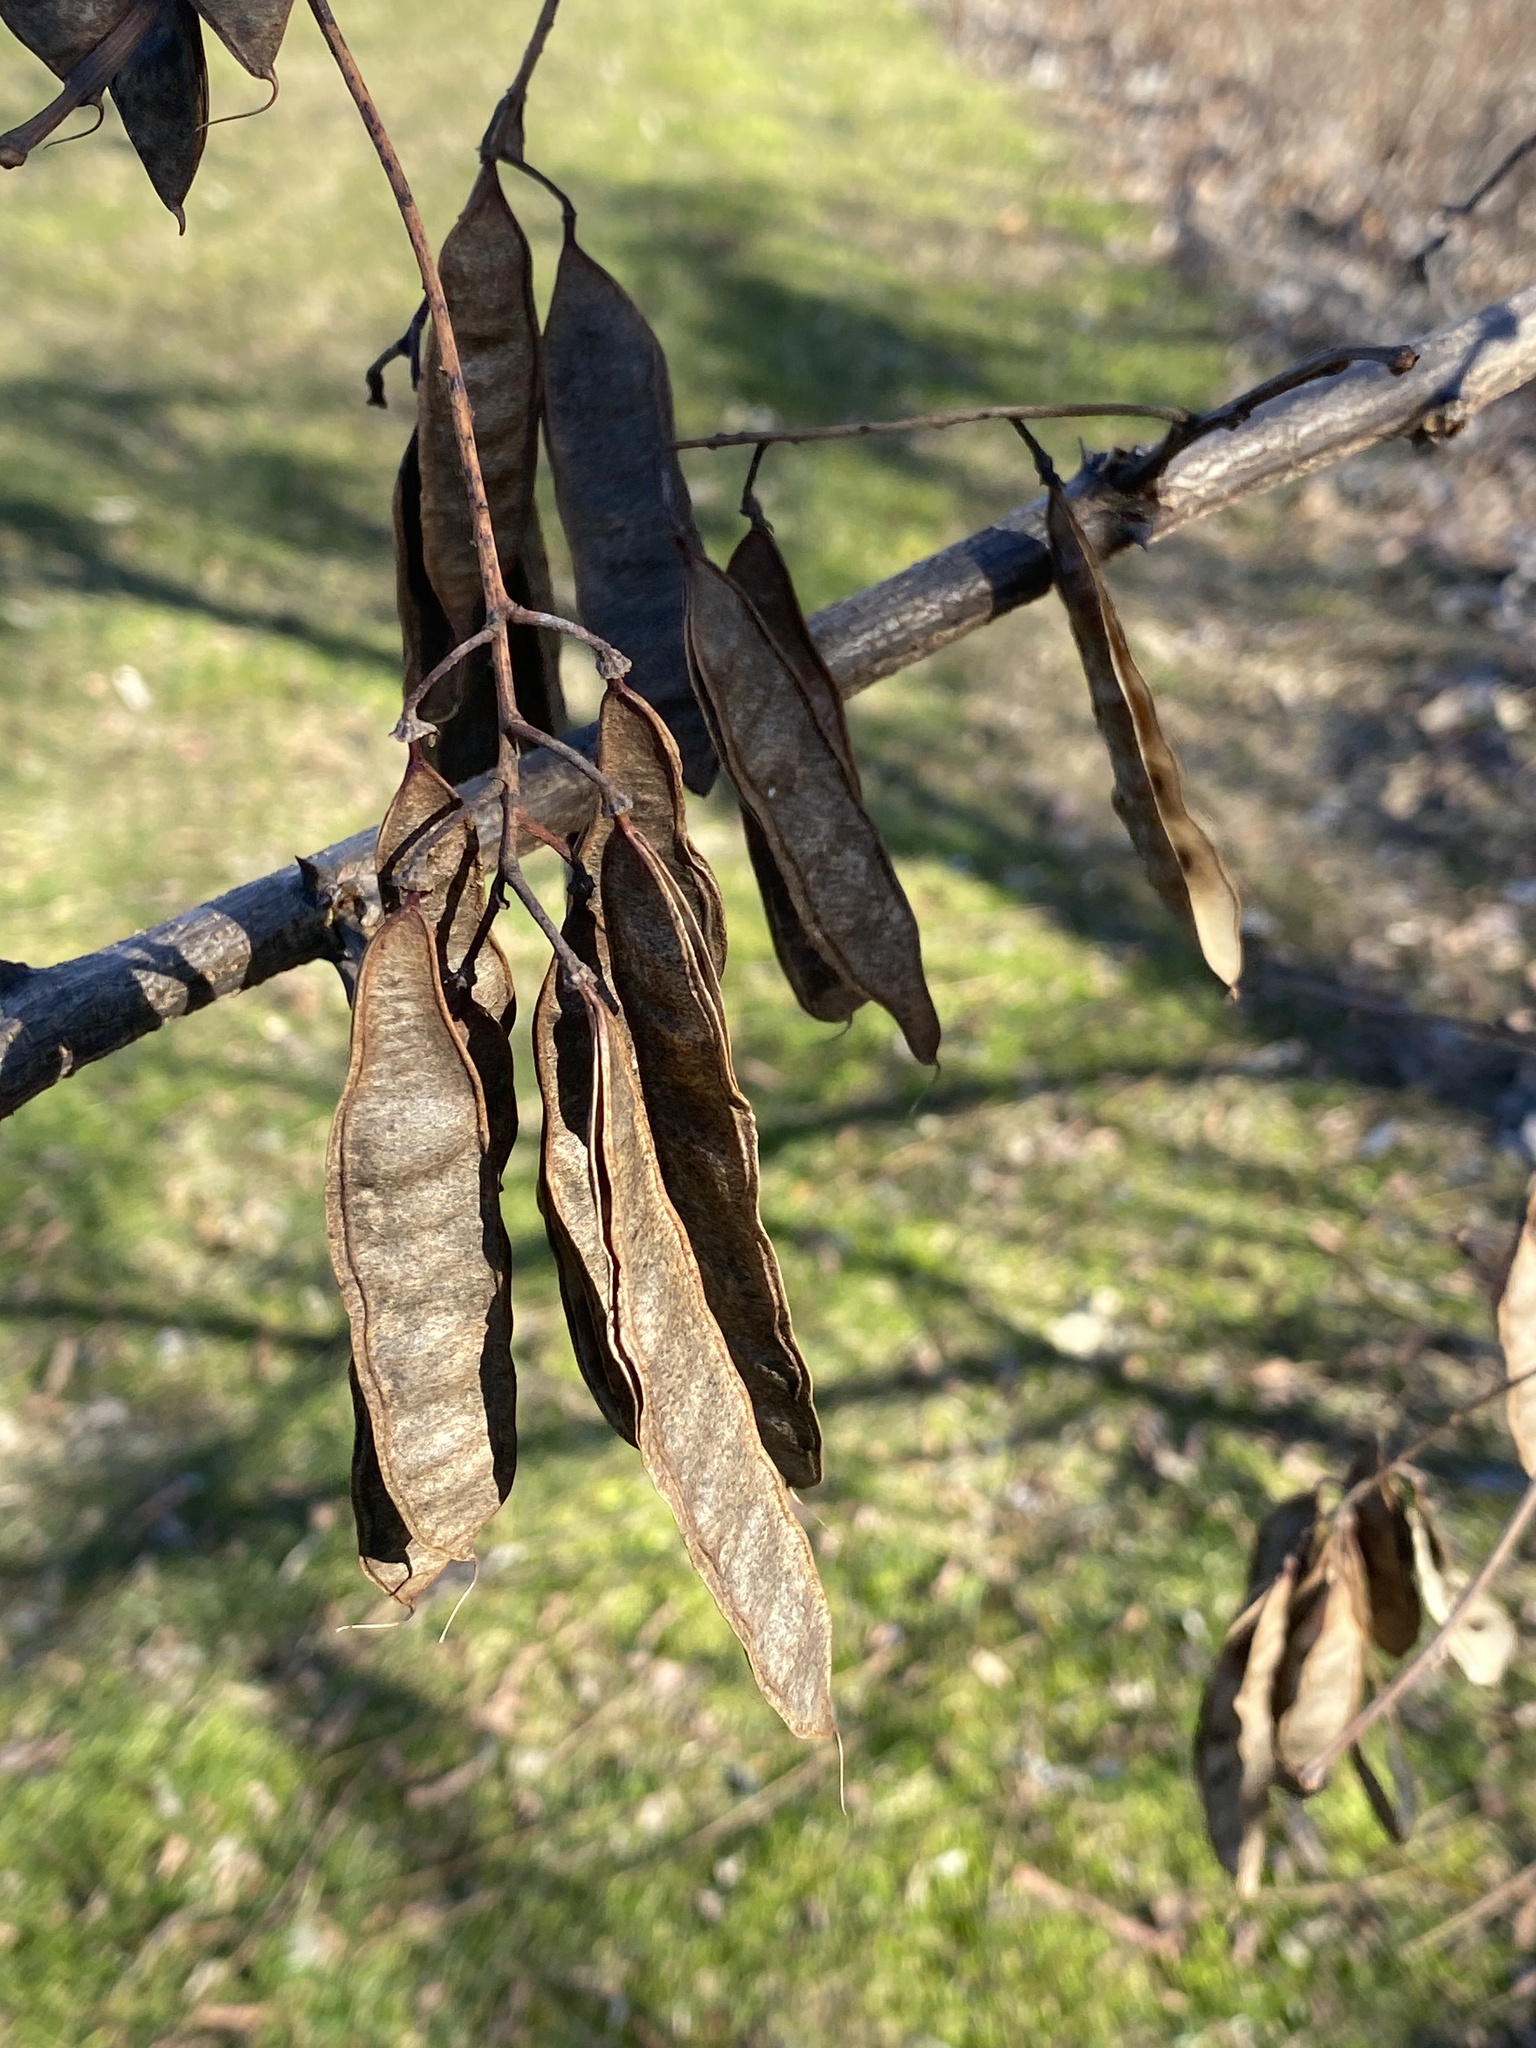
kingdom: Plantae
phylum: Tracheophyta
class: Magnoliopsida
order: Fabales
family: Fabaceae
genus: Robinia
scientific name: Robinia pseudoacacia
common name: Black locust
